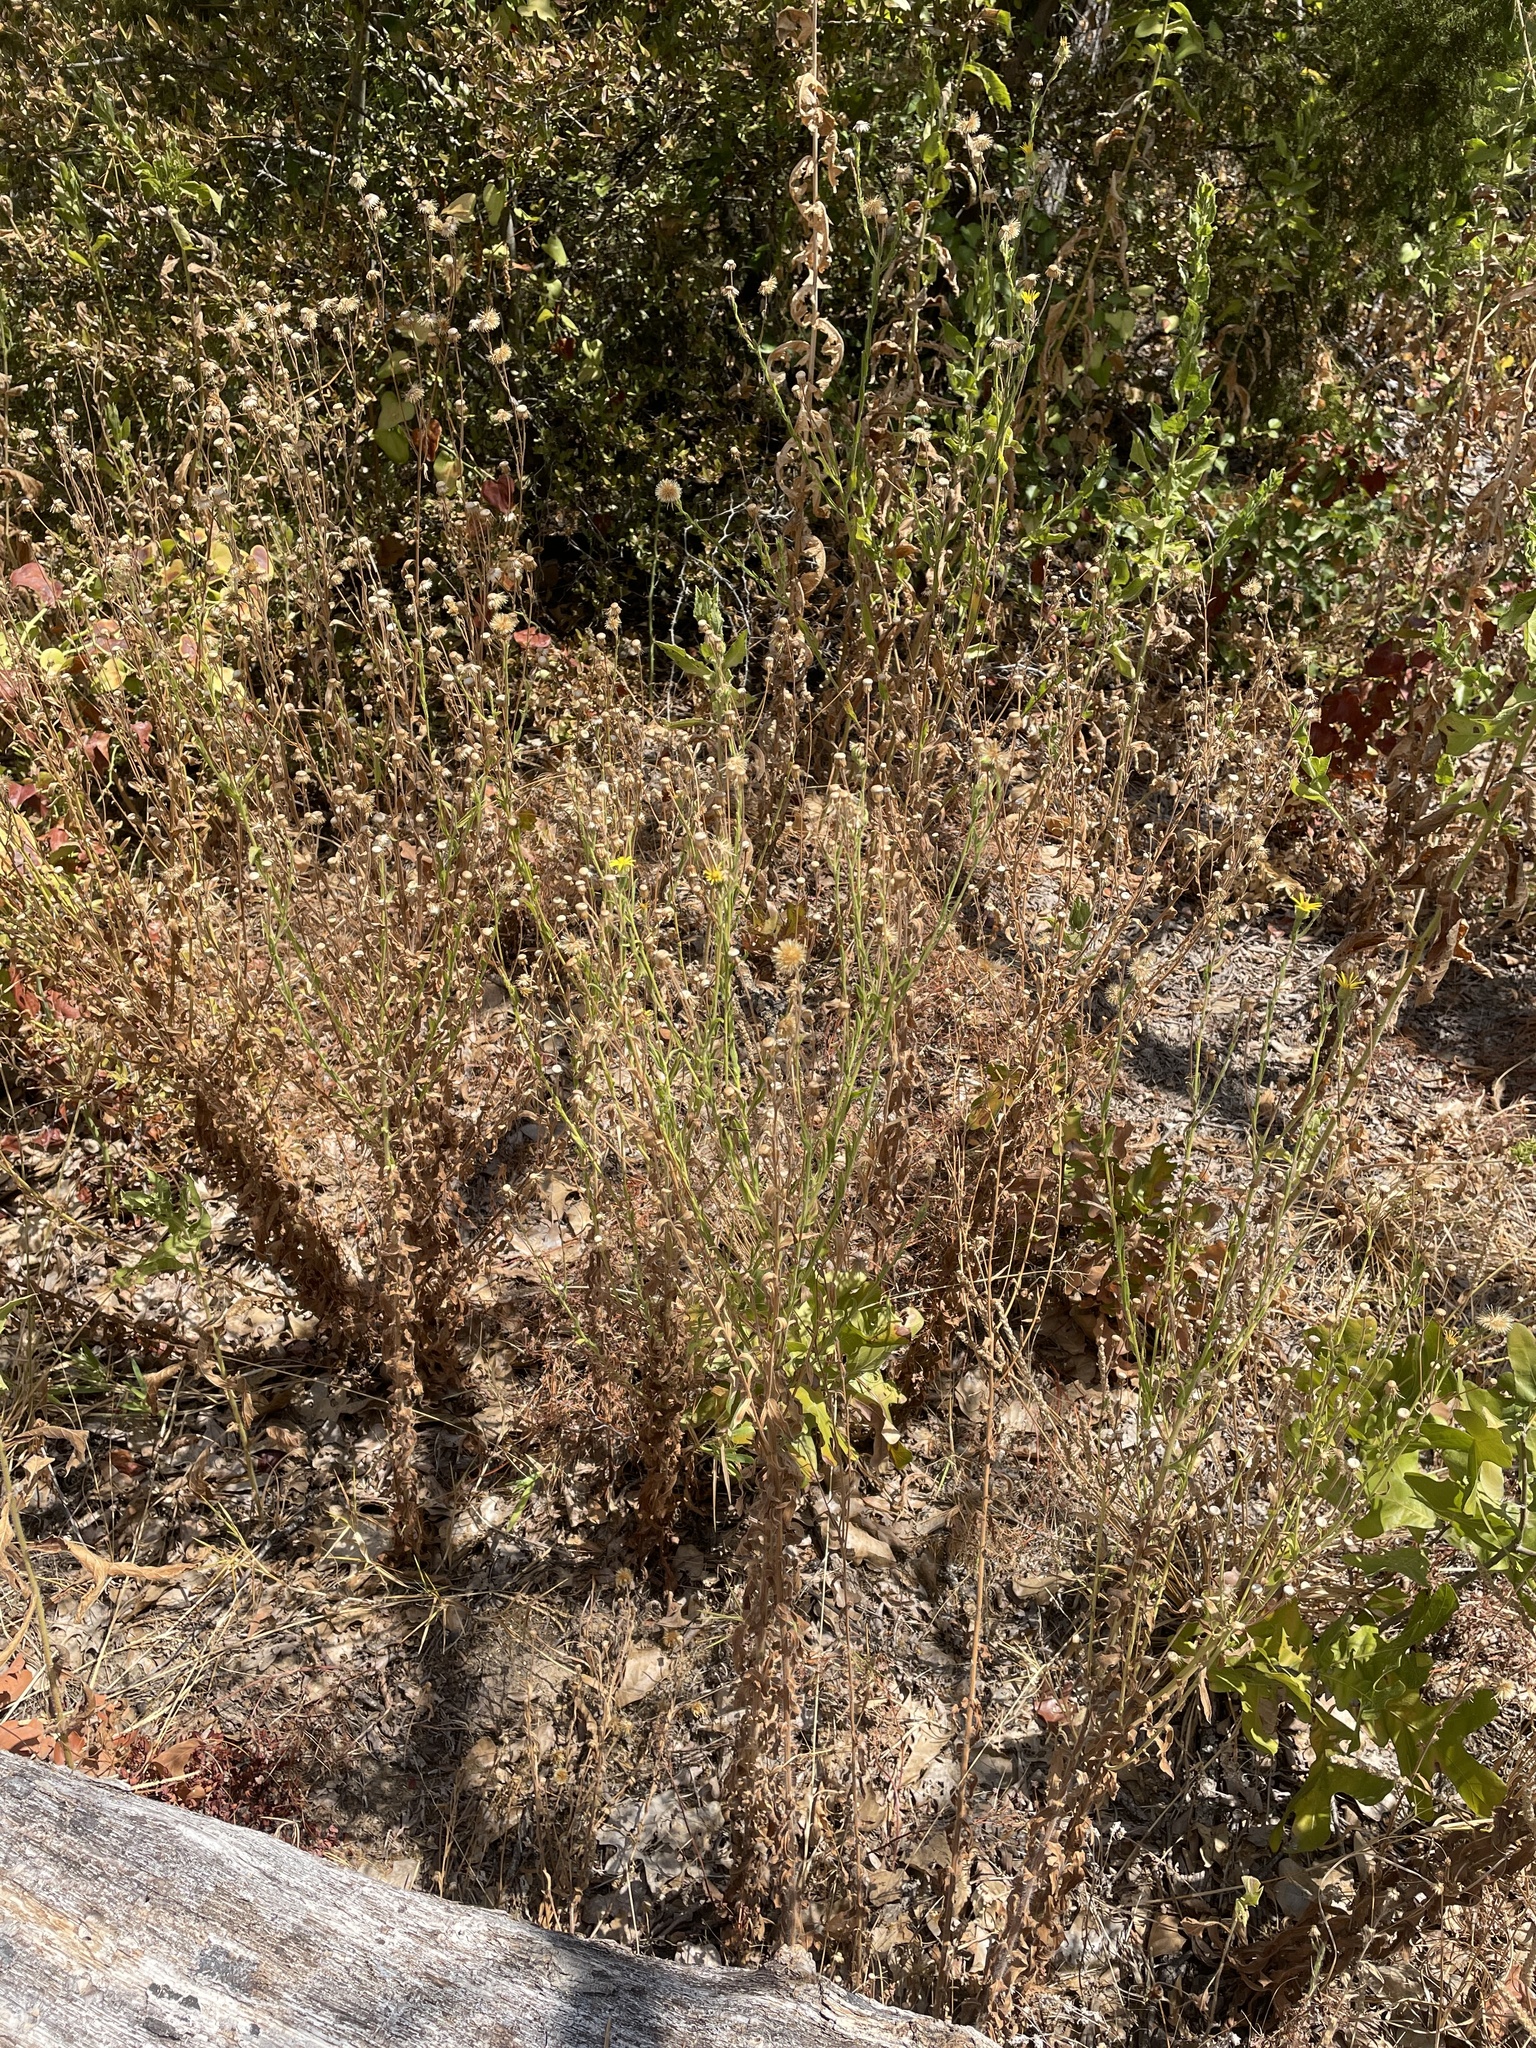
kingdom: Plantae
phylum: Tracheophyta
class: Magnoliopsida
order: Asterales
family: Asteraceae
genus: Bradburia
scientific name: Bradburia pilosa
